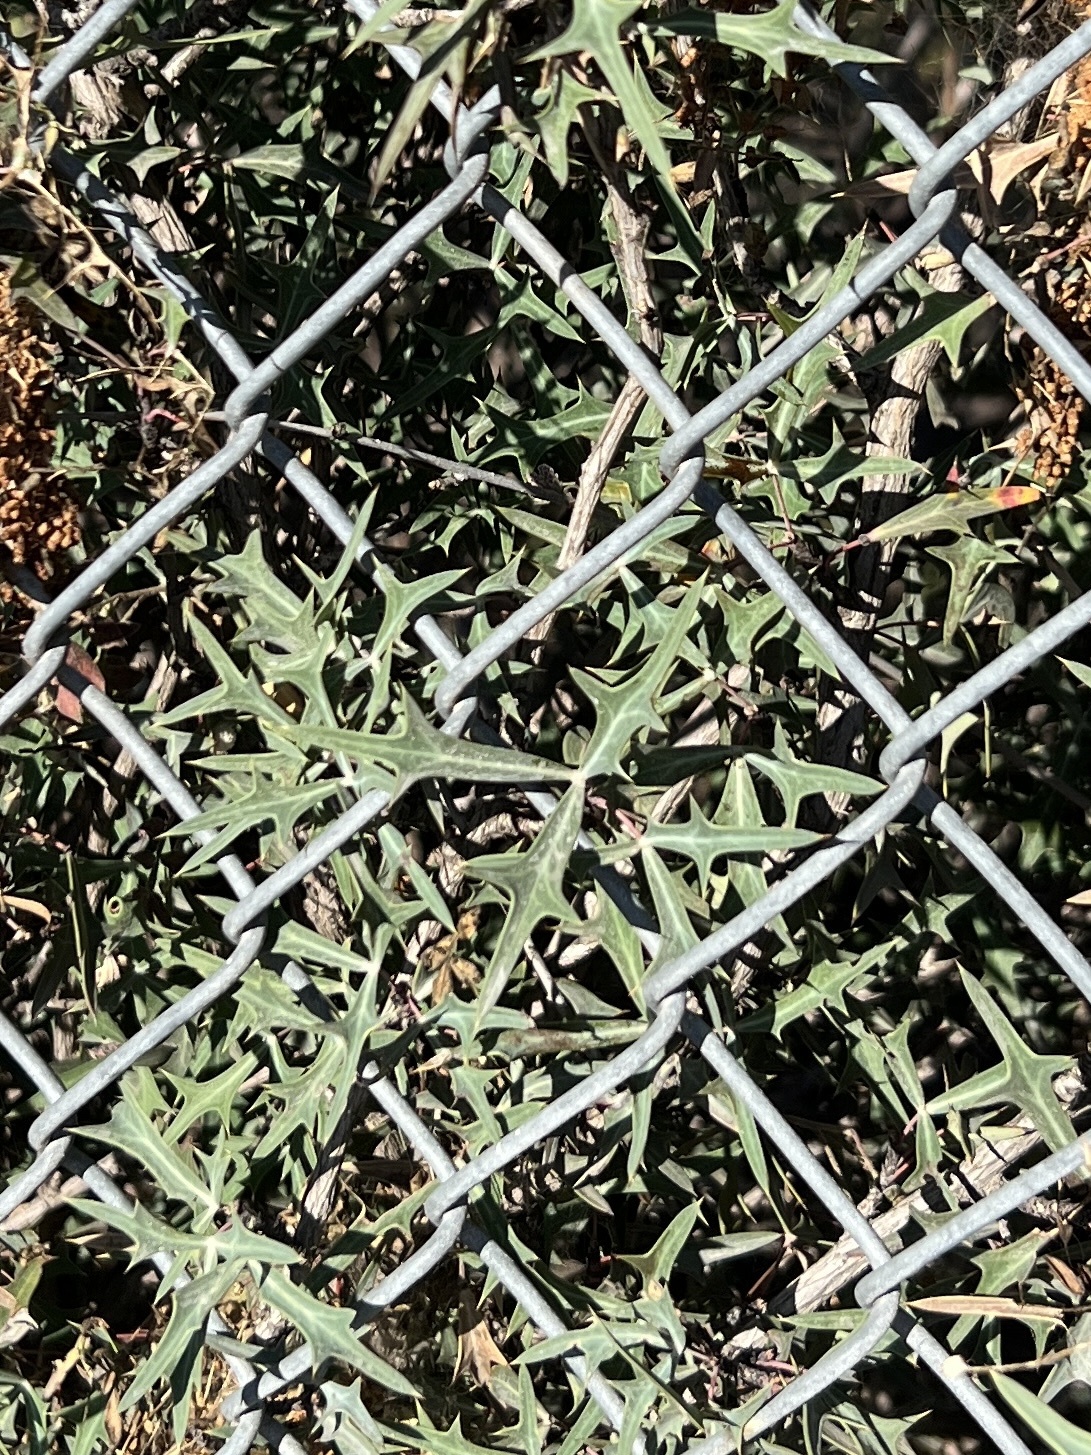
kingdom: Plantae
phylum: Tracheophyta
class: Magnoliopsida
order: Ranunculales
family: Berberidaceae
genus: Alloberberis
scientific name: Alloberberis trifoliolata
